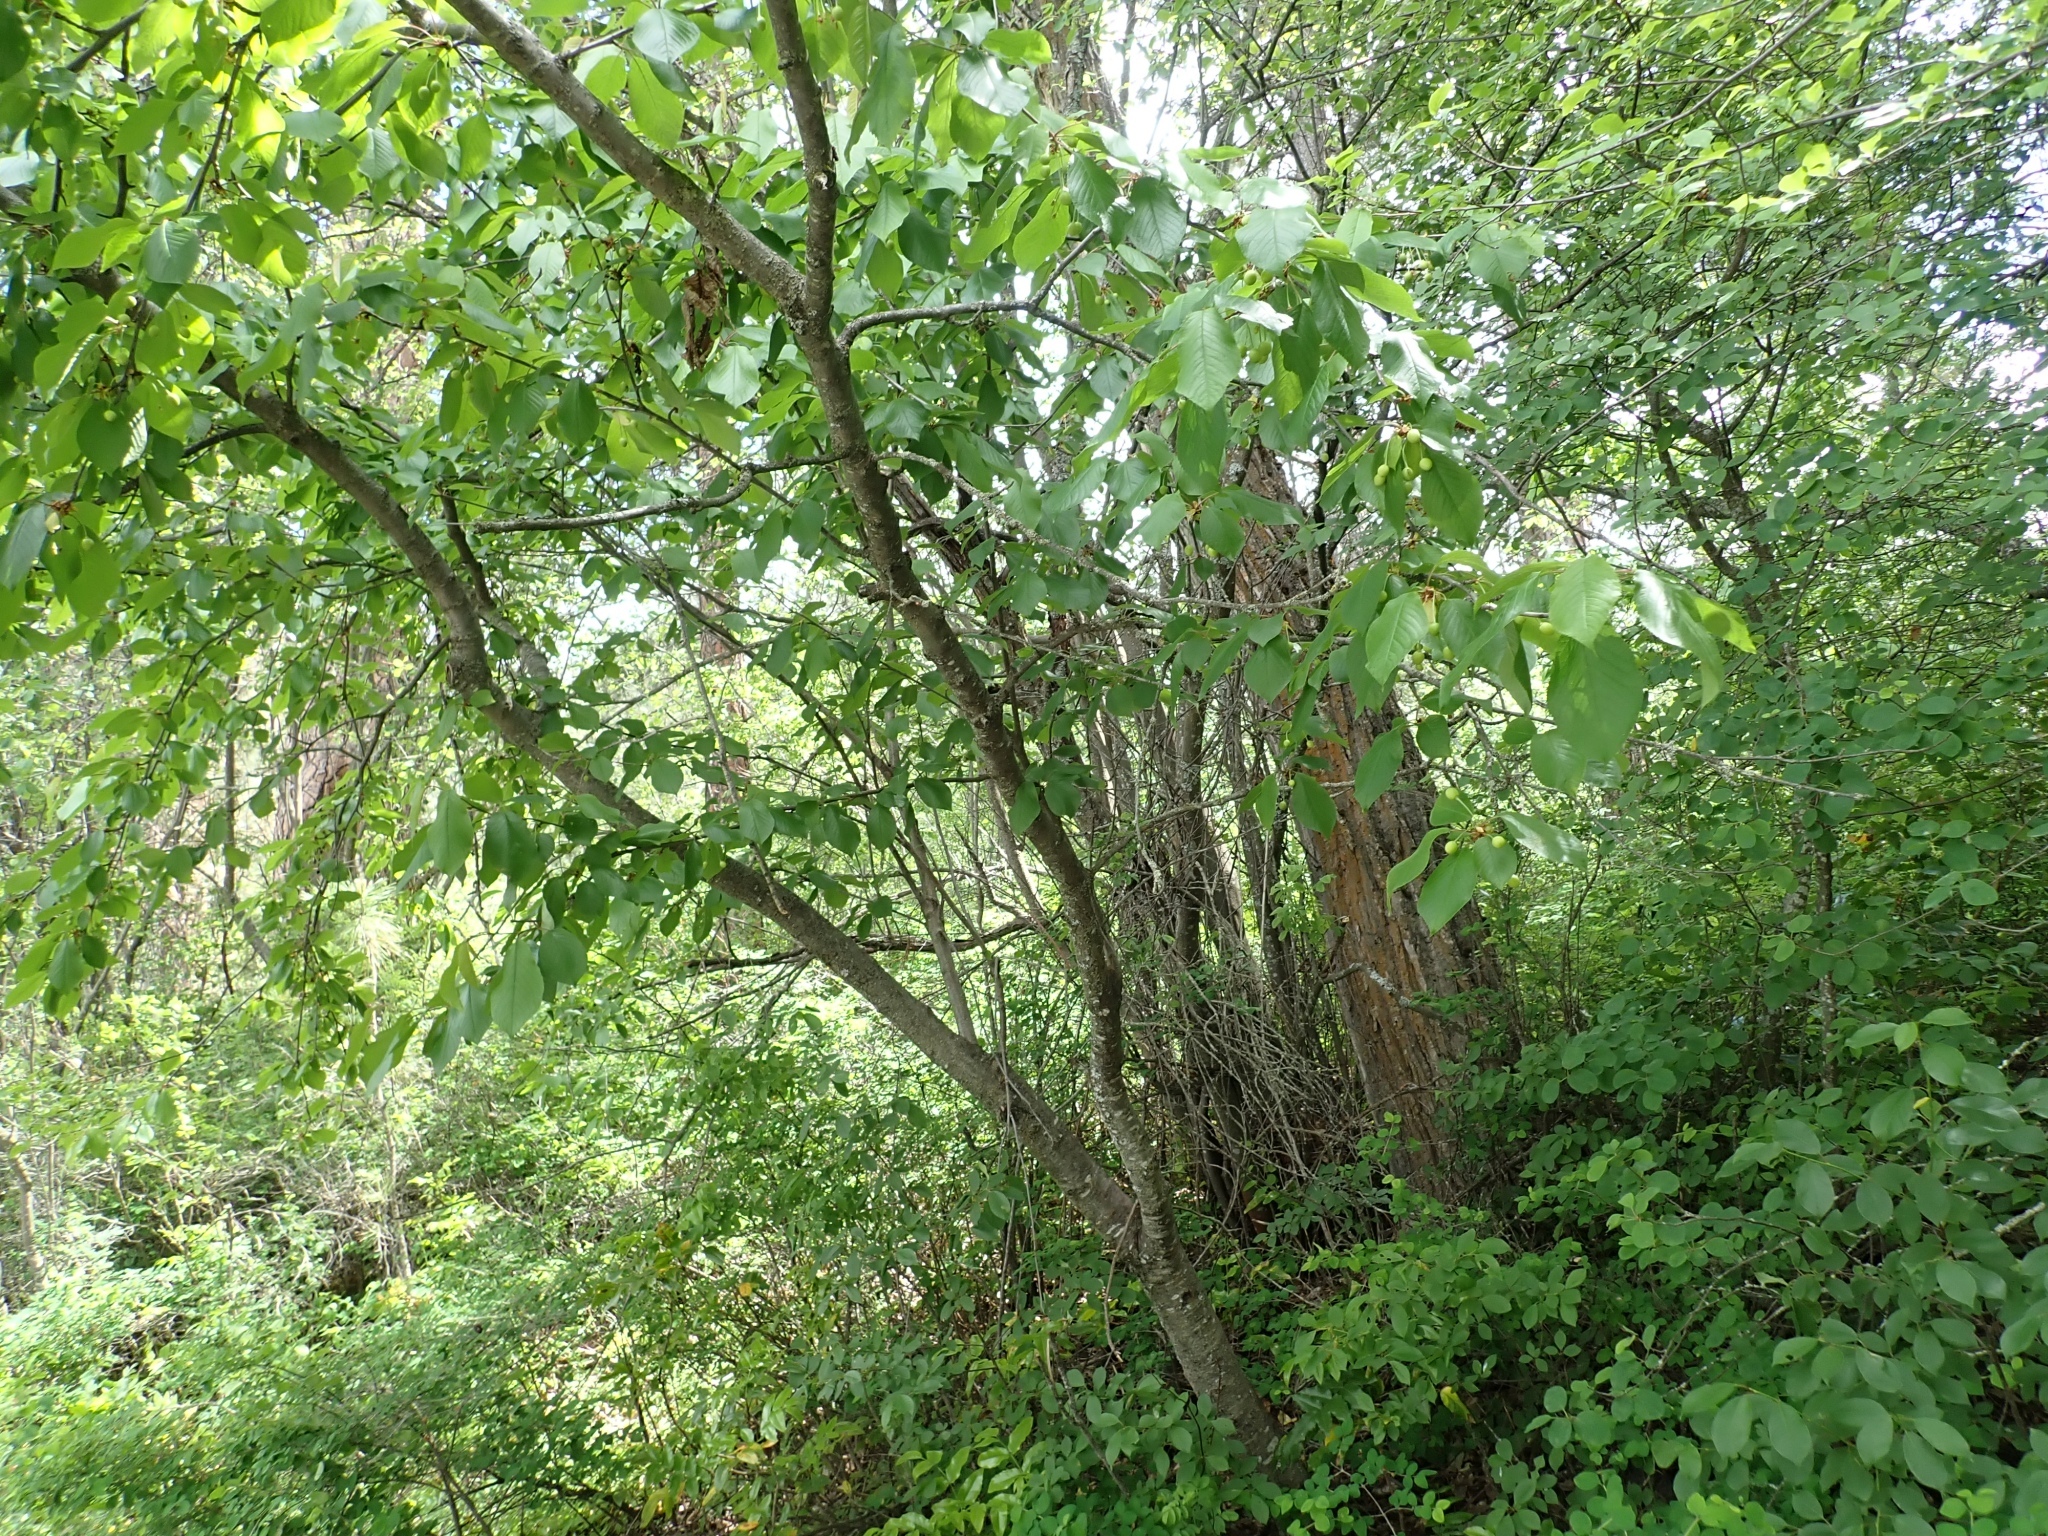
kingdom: Plantae
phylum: Tracheophyta
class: Magnoliopsida
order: Rosales
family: Rosaceae
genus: Prunus
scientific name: Prunus avium
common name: Sweet cherry
